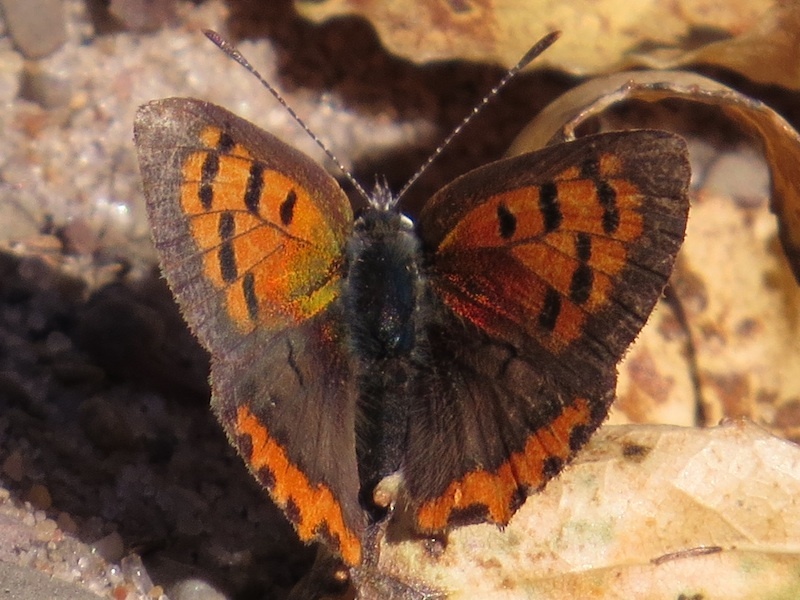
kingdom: Animalia
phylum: Arthropoda
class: Insecta
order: Lepidoptera
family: Lycaenidae
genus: Lycaena
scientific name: Lycaena hypophlaeas
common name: American copper
